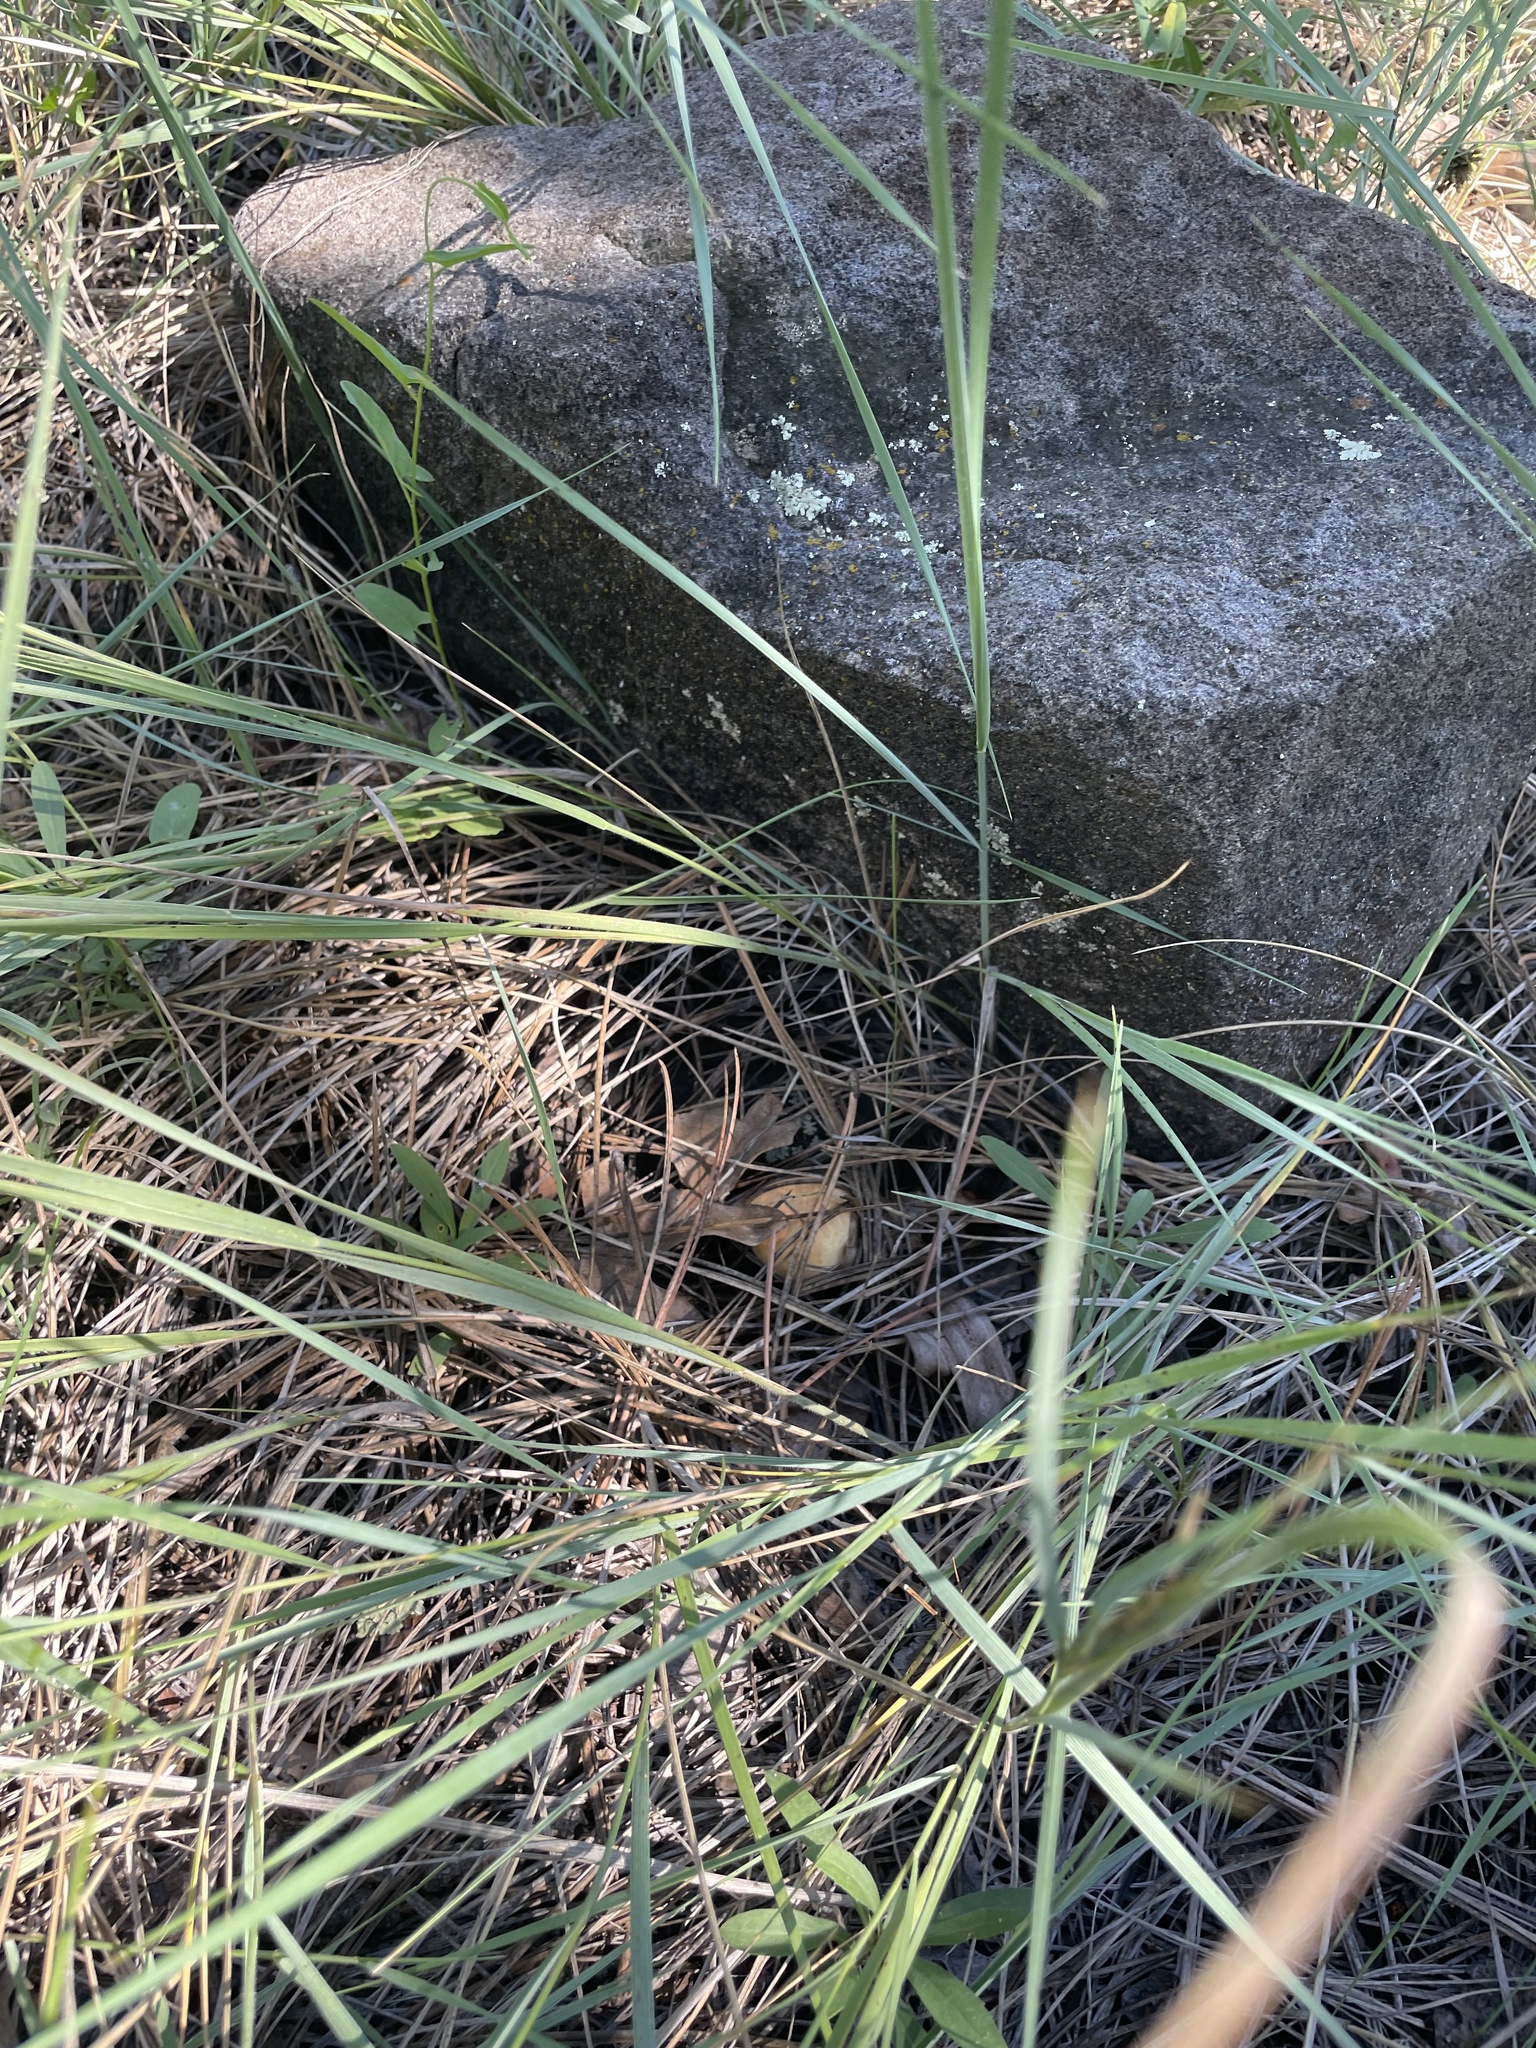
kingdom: Fungi
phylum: Basidiomycota
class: Agaricomycetes
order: Boletales
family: Suillaceae
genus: Suillus
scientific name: Suillus kaibabensis
